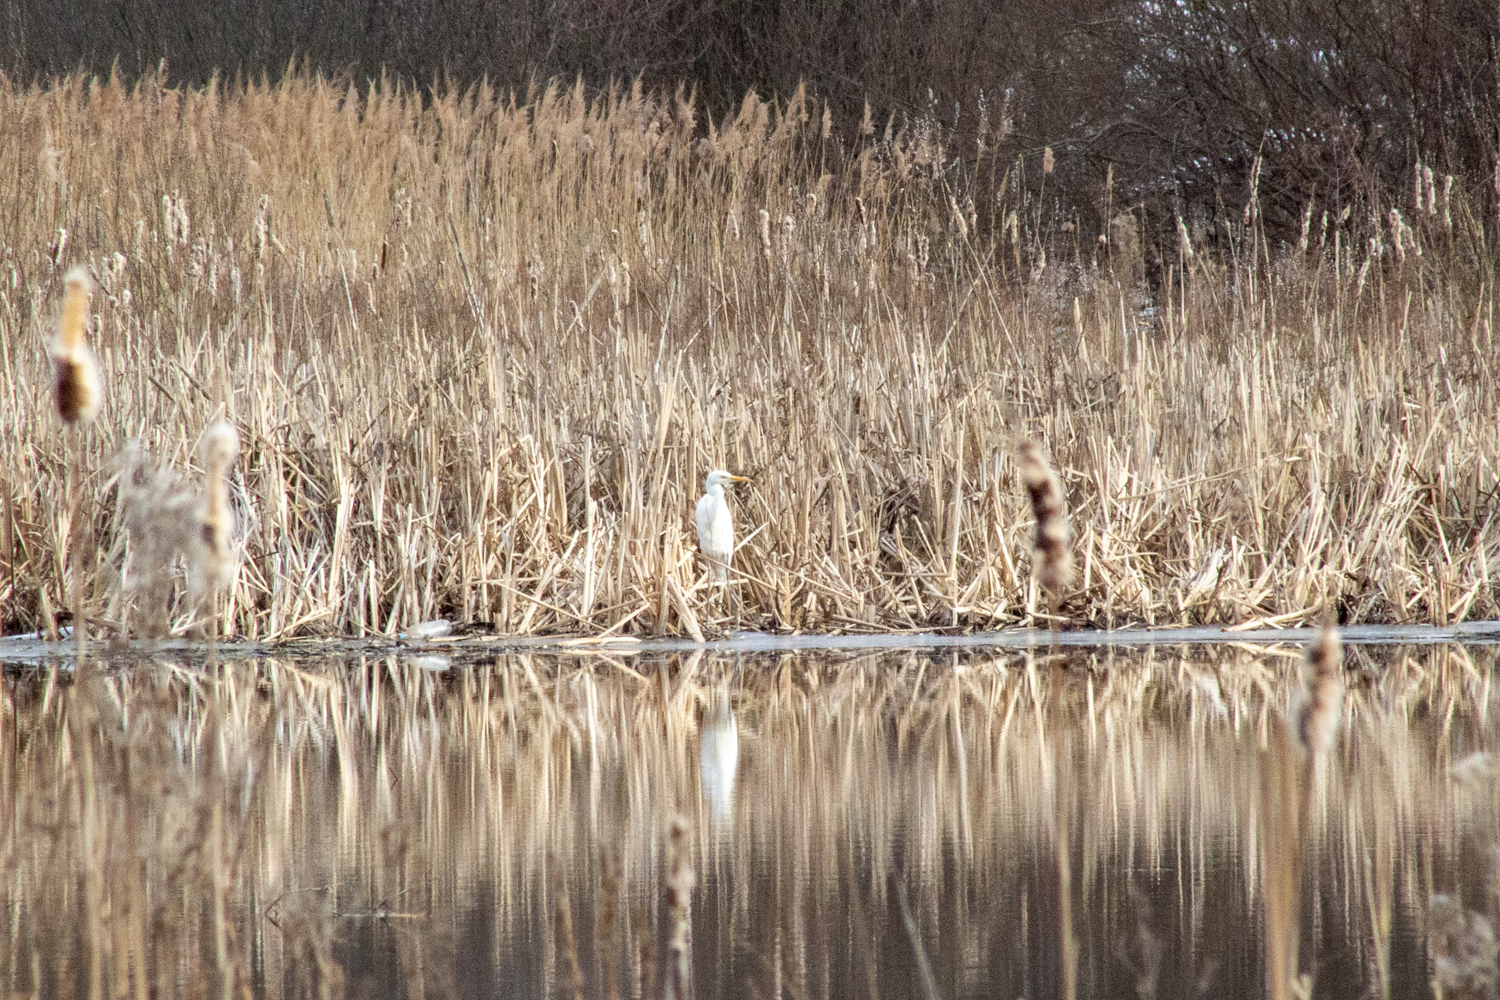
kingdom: Animalia
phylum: Chordata
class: Aves
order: Pelecaniformes
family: Ardeidae
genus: Ardea
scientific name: Ardea alba
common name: Great egret
